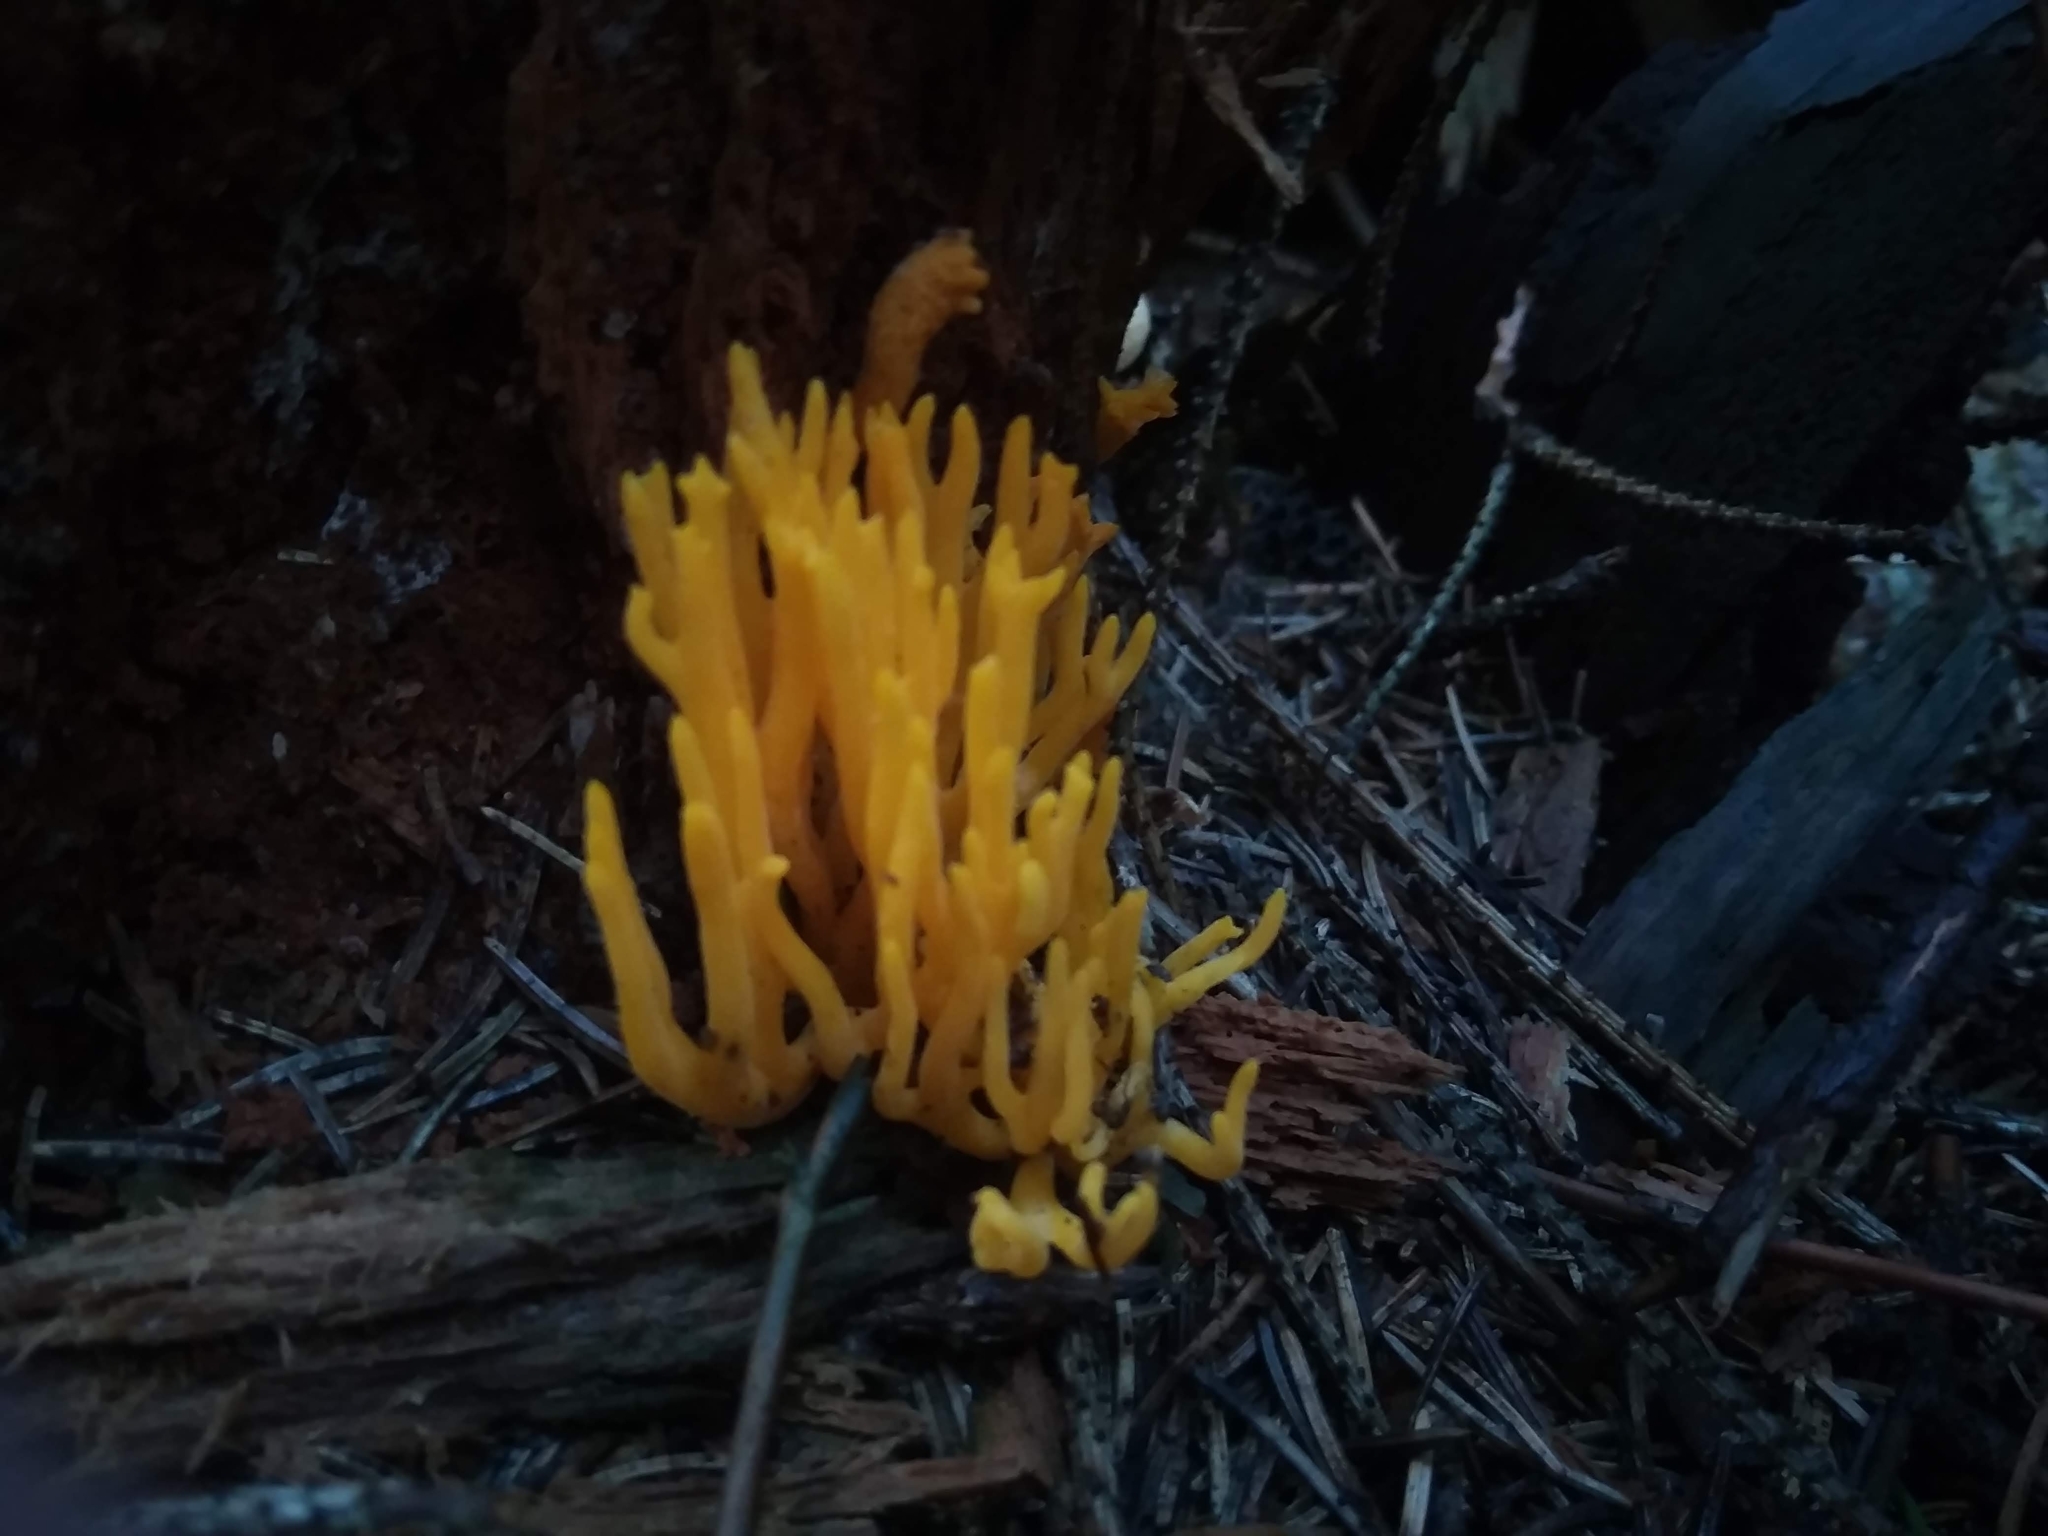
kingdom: Fungi
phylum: Basidiomycota
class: Dacrymycetes
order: Dacrymycetales
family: Dacrymycetaceae
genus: Calocera
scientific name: Calocera viscosa
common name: Yellow stagshorn
